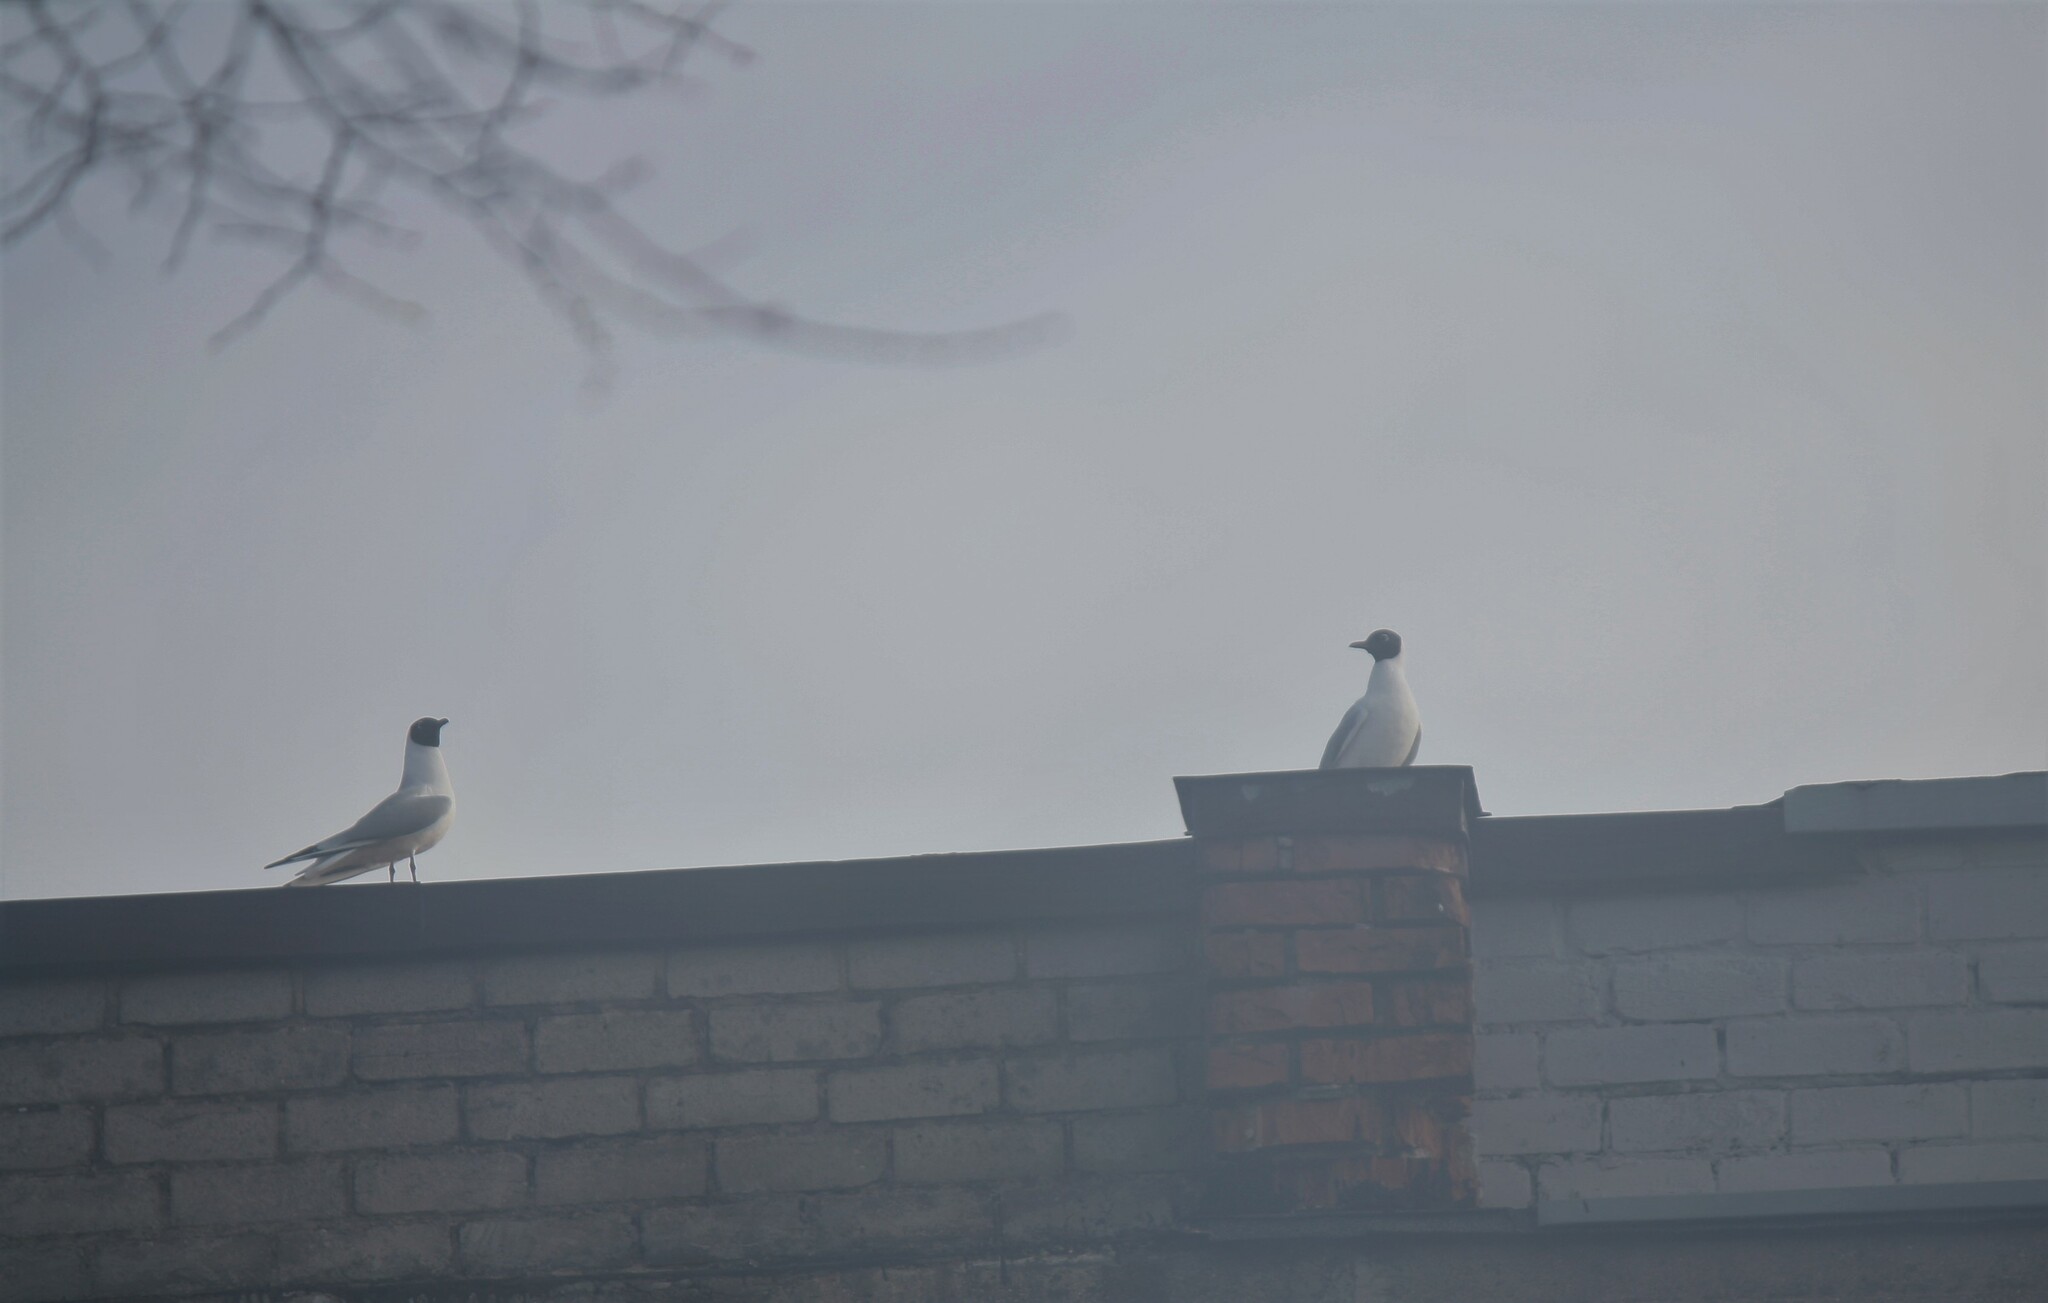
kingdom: Animalia
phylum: Chordata
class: Aves
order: Charadriiformes
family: Laridae
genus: Chroicocephalus
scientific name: Chroicocephalus ridibundus
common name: Black-headed gull
